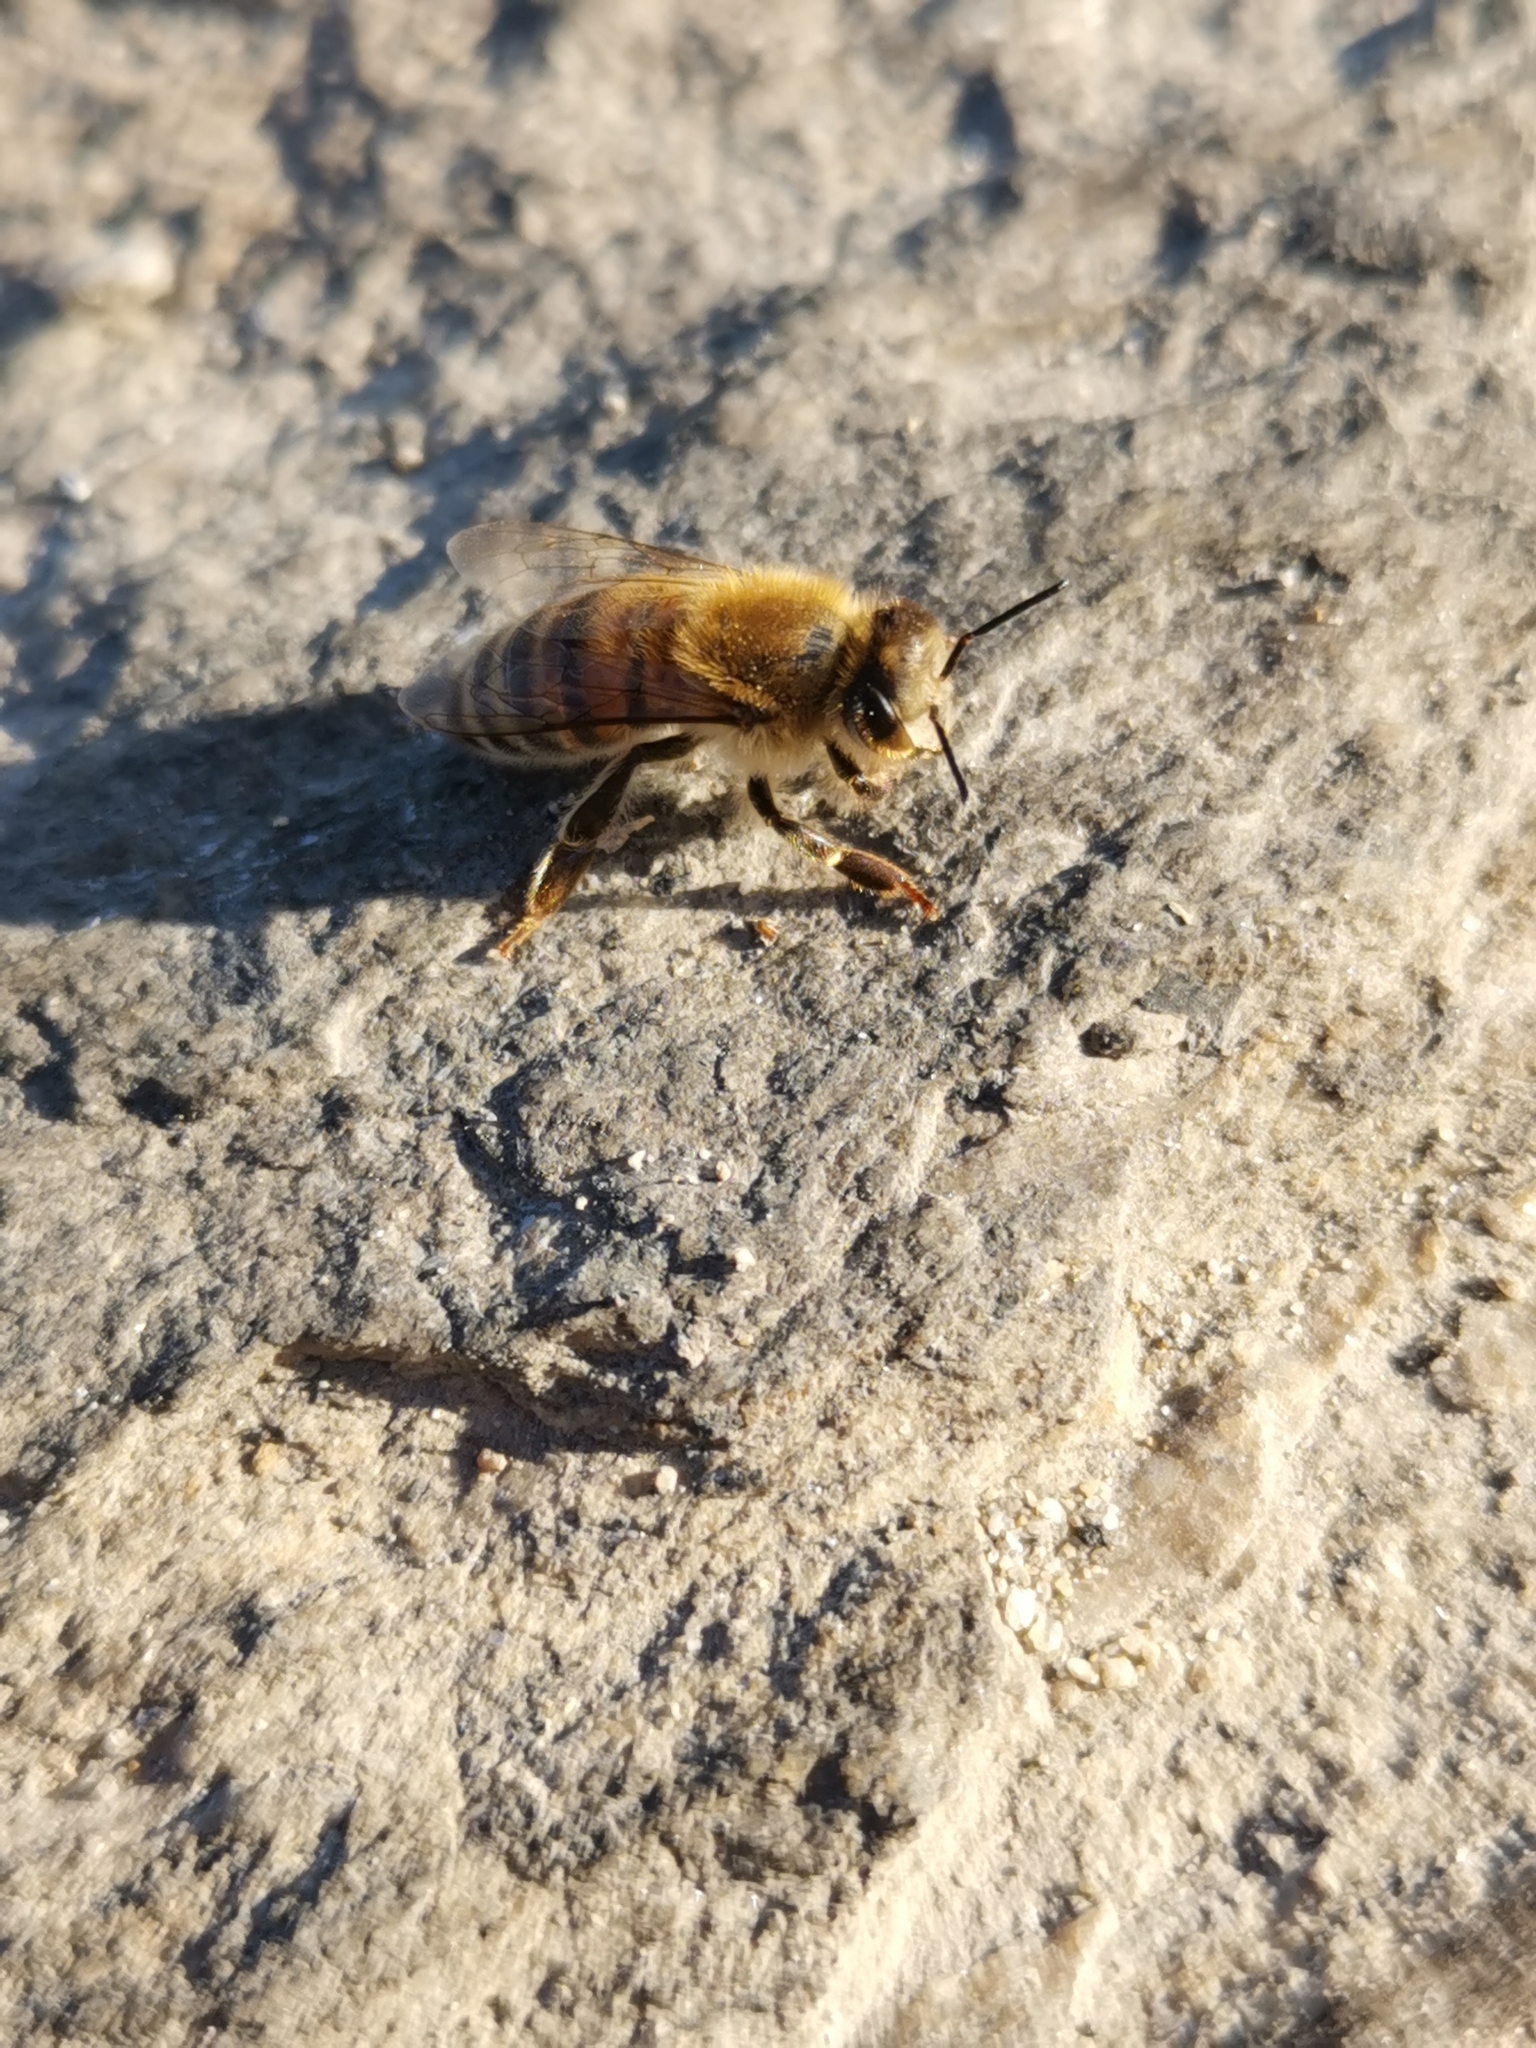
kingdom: Animalia
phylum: Arthropoda
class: Insecta
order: Hymenoptera
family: Apidae
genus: Apis
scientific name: Apis mellifera
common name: Honey bee
